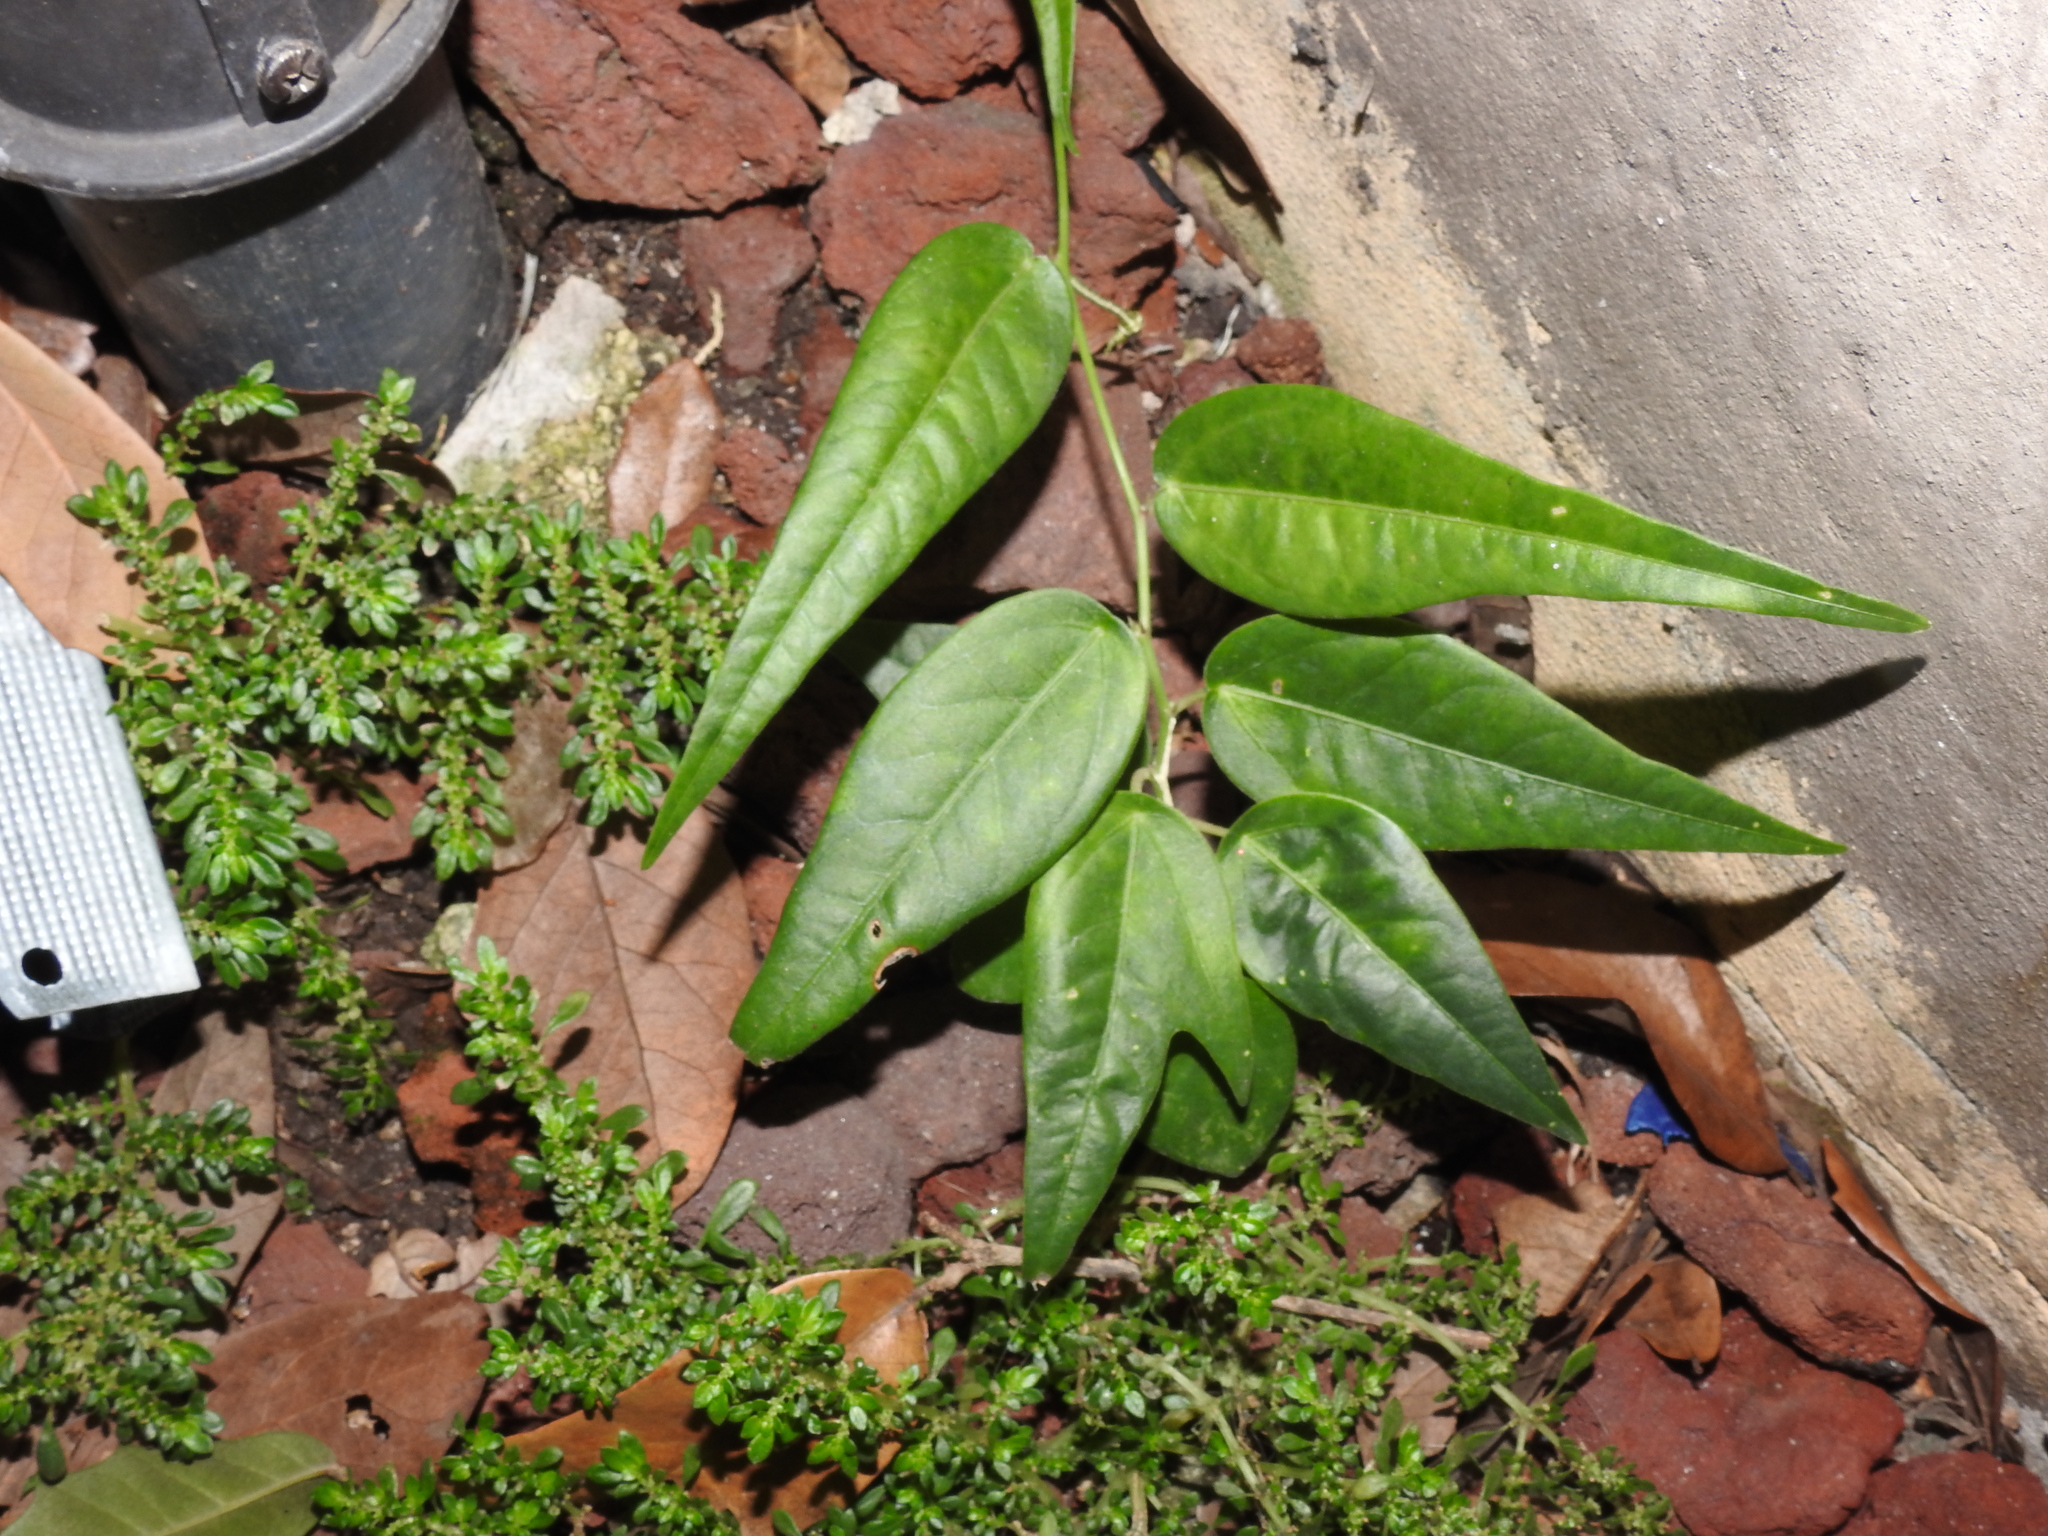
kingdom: Plantae
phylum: Tracheophyta
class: Magnoliopsida
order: Malpighiales
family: Passifloraceae
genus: Passiflora
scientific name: Passiflora pallida
